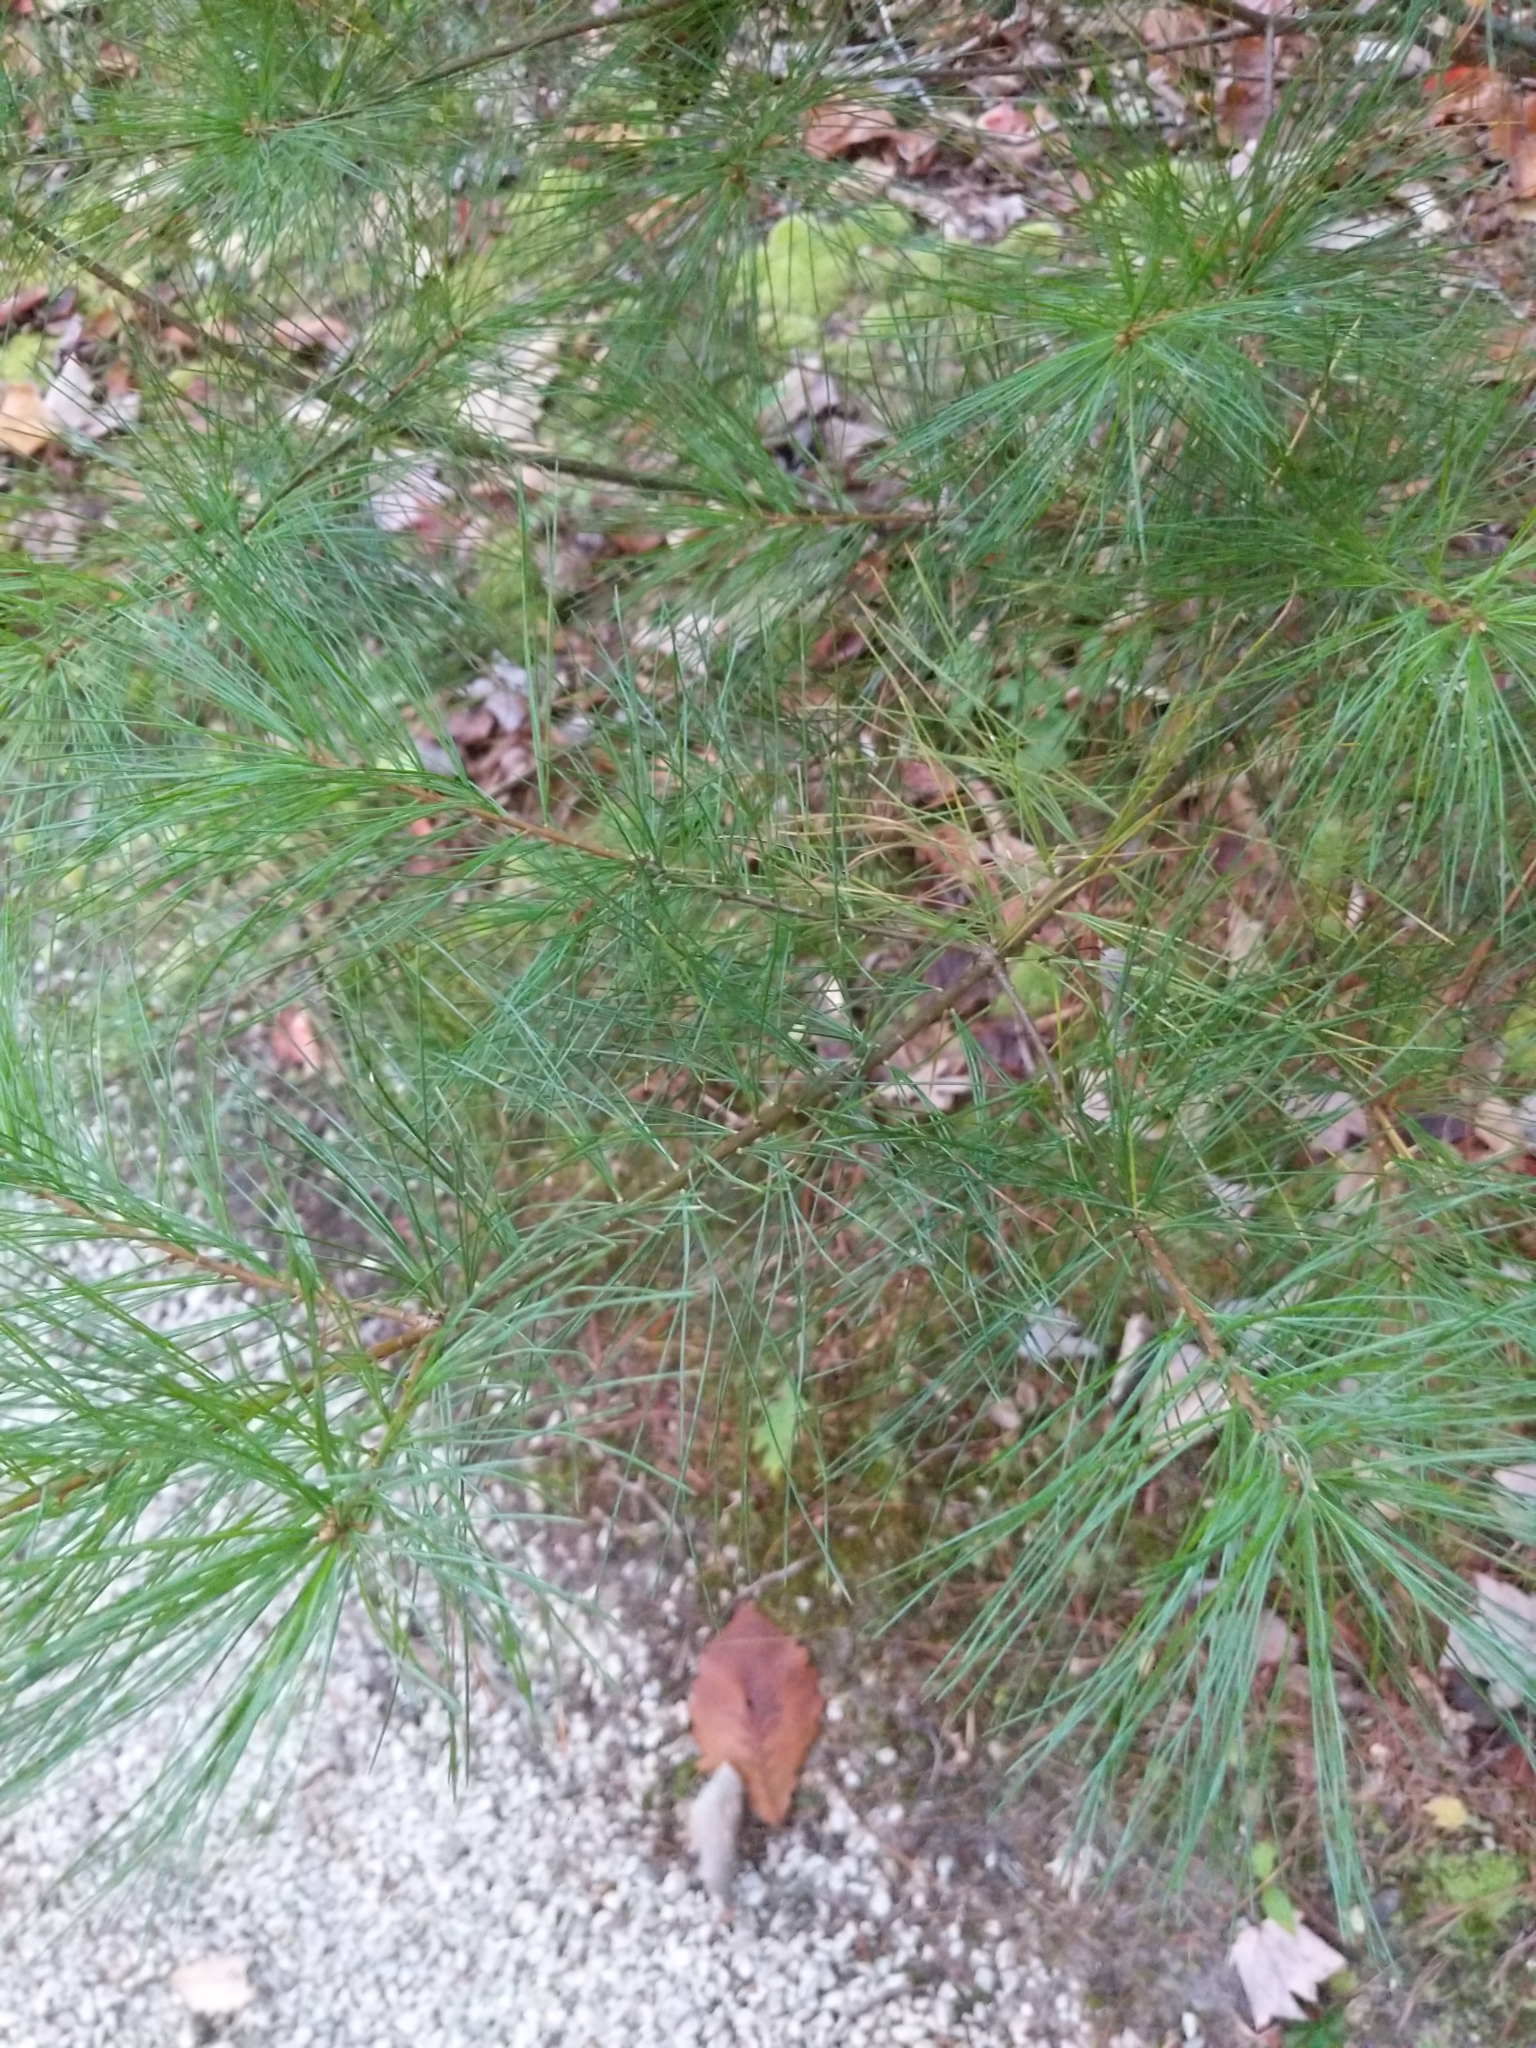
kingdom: Plantae
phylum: Tracheophyta
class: Pinopsida
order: Pinales
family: Pinaceae
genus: Pinus
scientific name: Pinus strobus
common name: Weymouth pine
